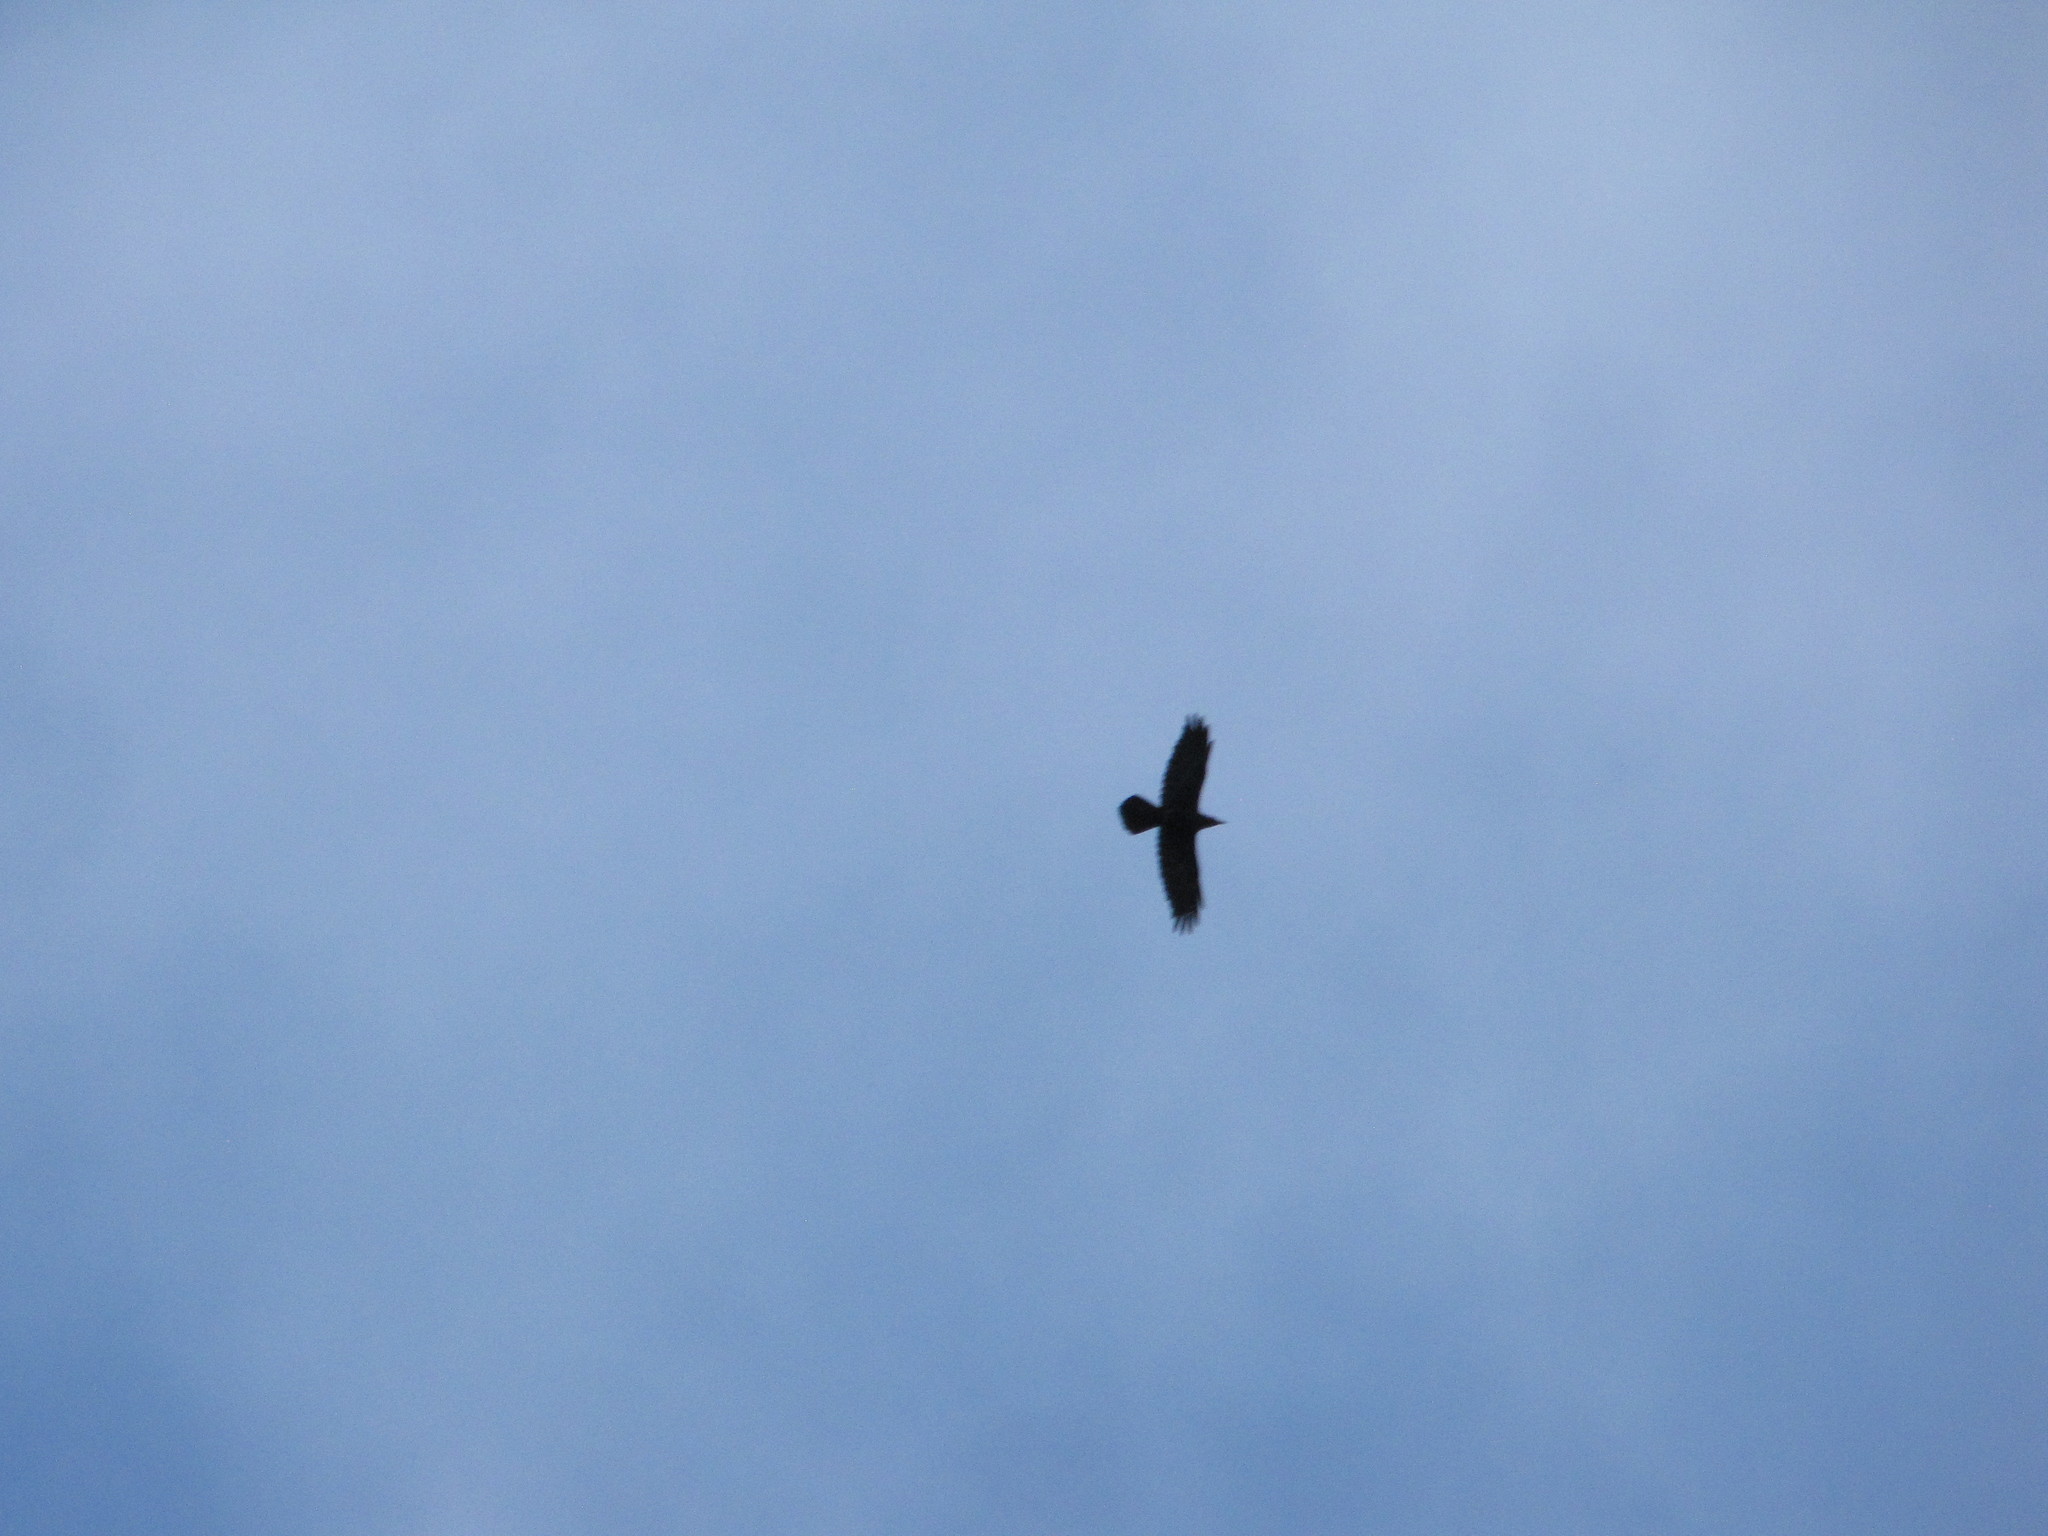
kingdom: Animalia
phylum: Chordata
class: Aves
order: Passeriformes
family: Corvidae
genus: Corvus
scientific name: Corvus corax
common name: Common raven
